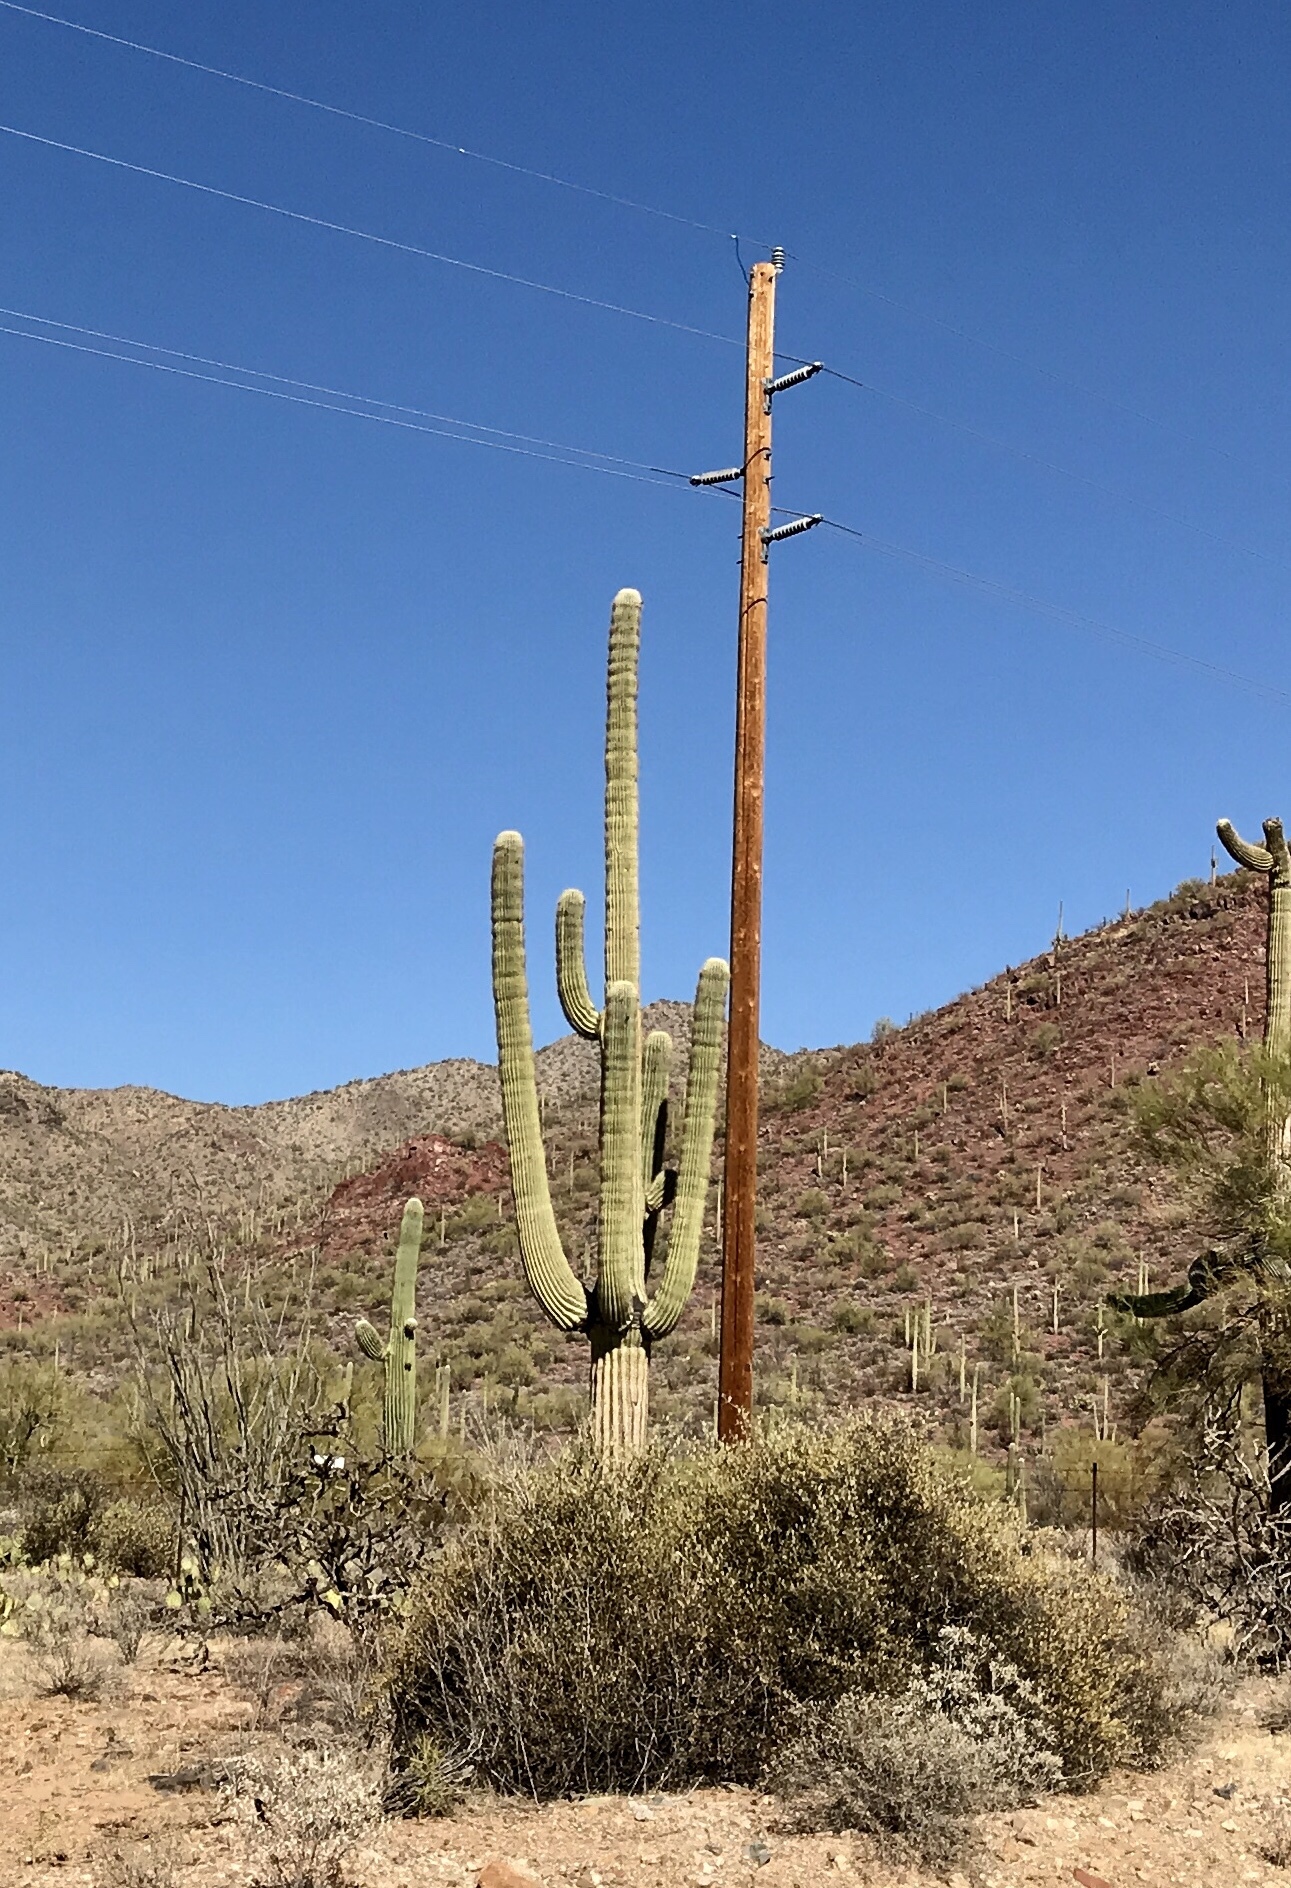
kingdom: Plantae
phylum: Tracheophyta
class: Magnoliopsida
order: Caryophyllales
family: Cactaceae
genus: Carnegiea
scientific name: Carnegiea gigantea
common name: Saguaro
